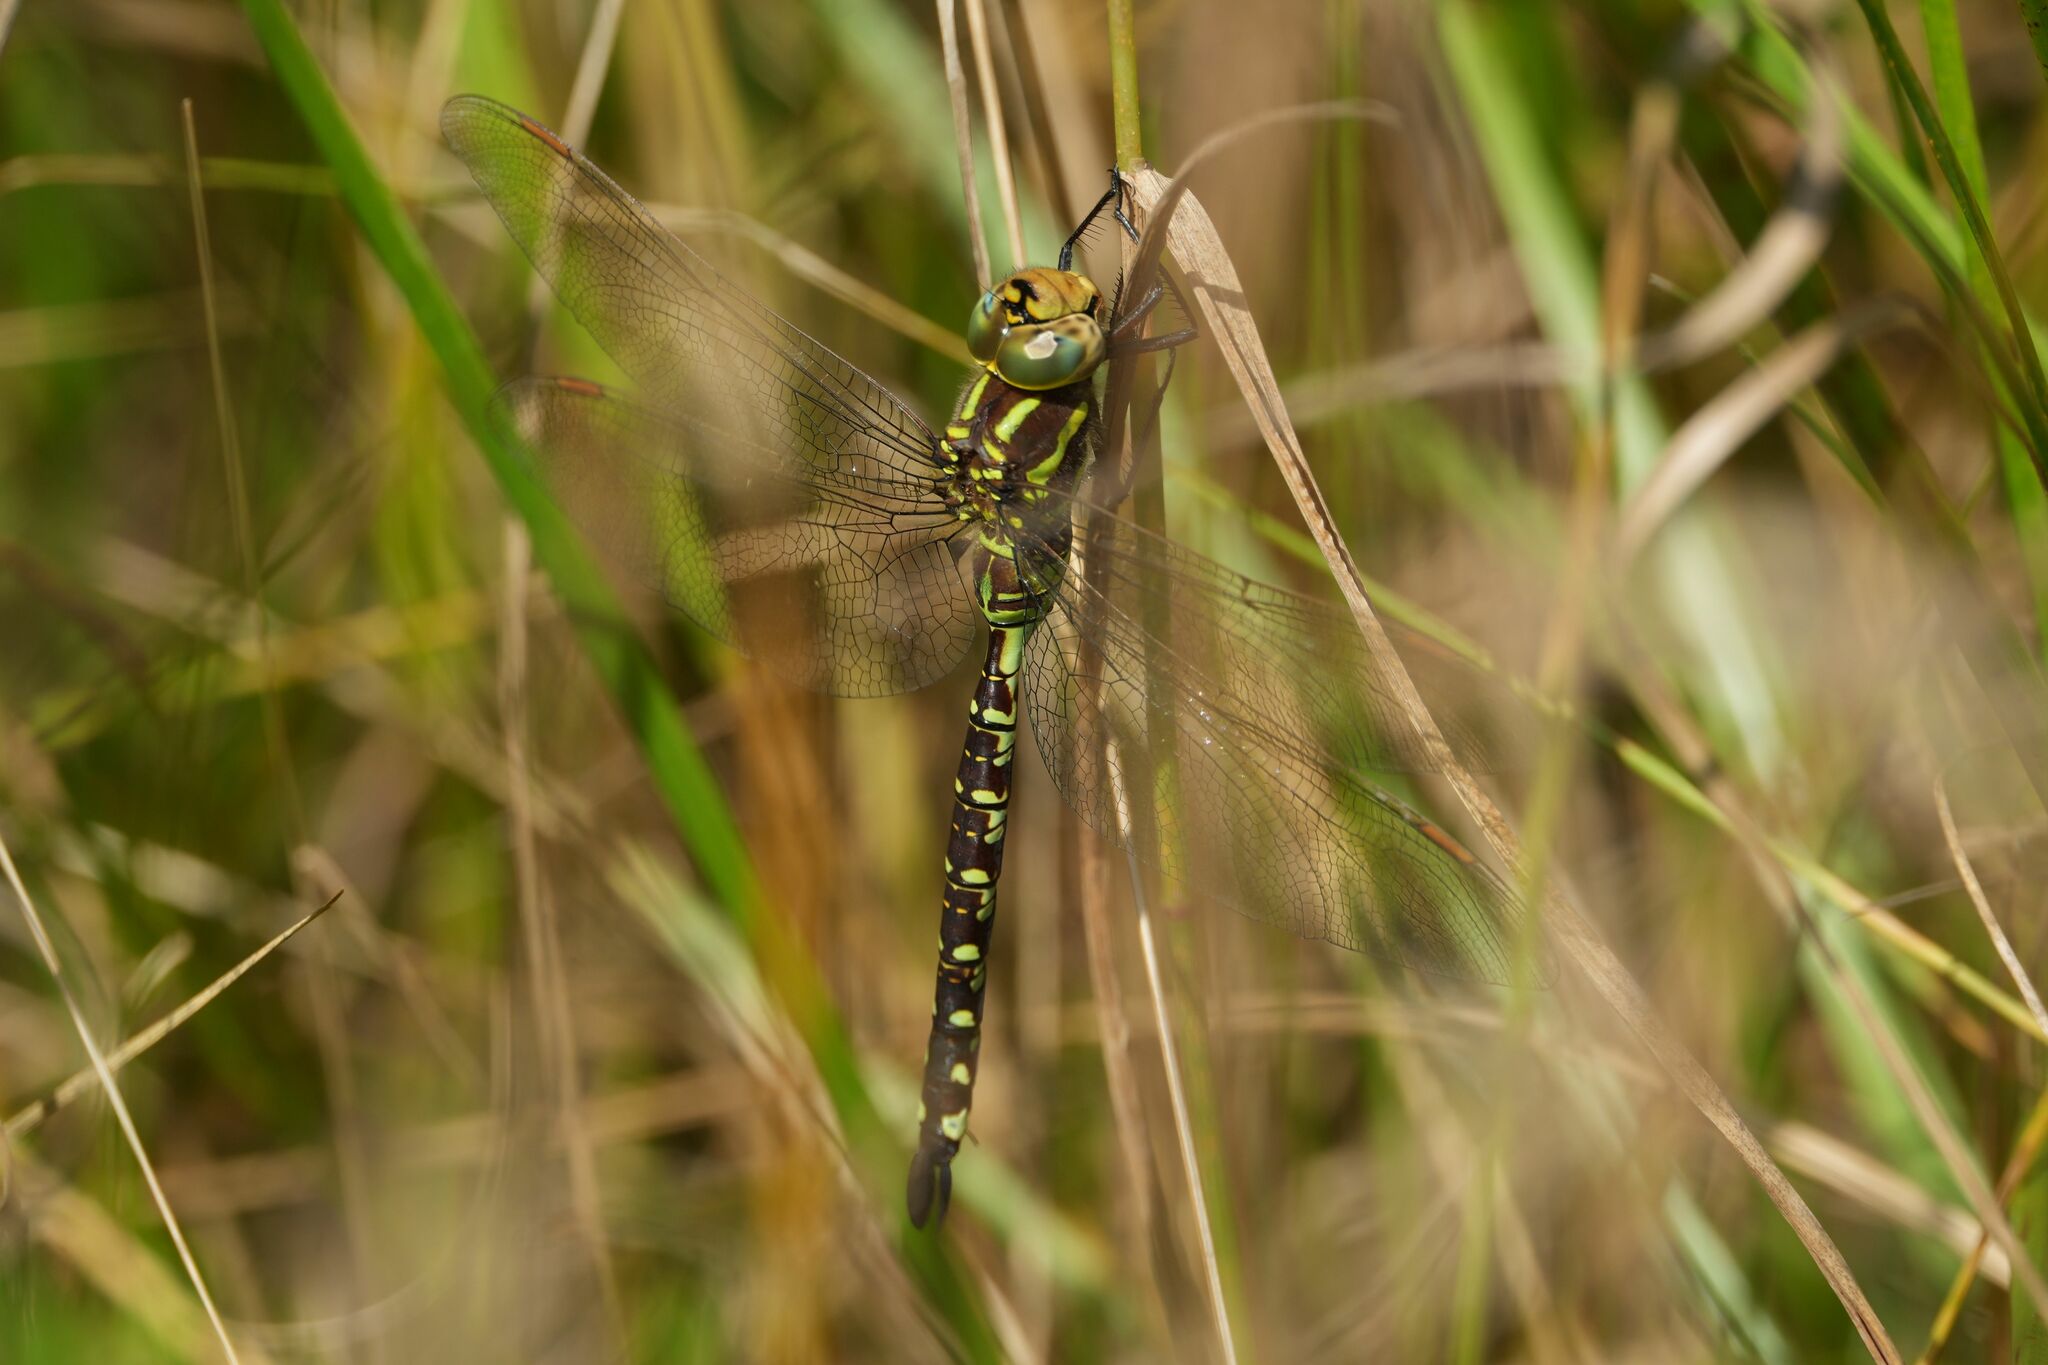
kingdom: Animalia
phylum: Arthropoda
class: Insecta
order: Odonata
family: Aeshnidae
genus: Aeshna
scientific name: Aeshna constricta
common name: Lance-tipped darner
